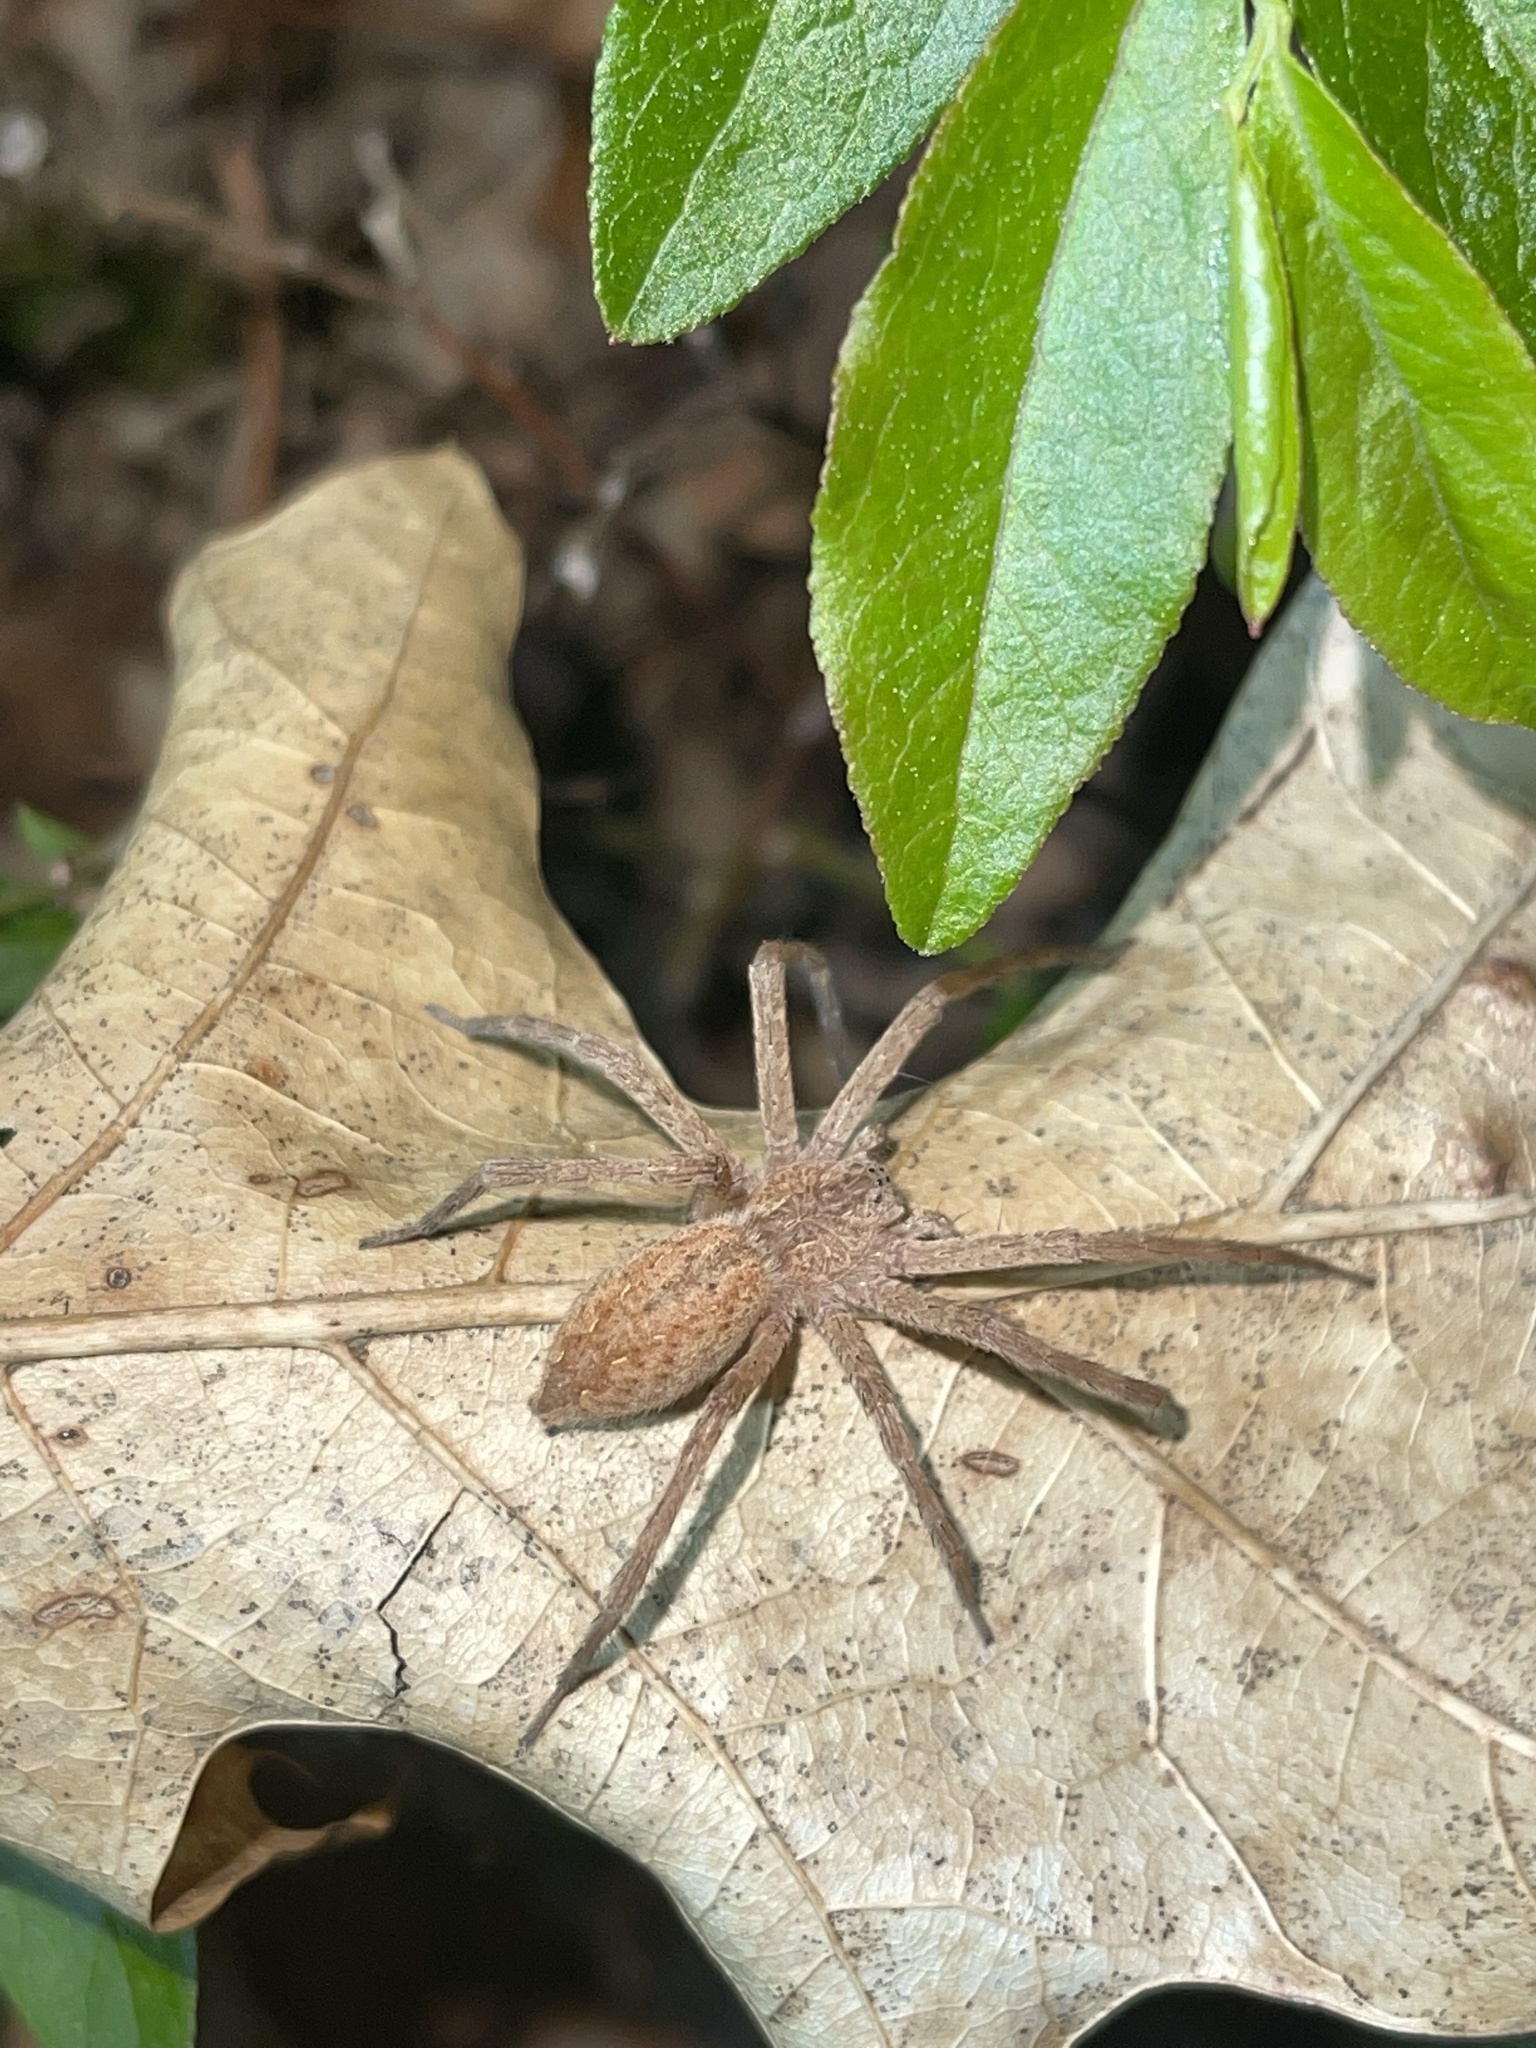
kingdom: Animalia
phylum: Arthropoda
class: Arachnida
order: Araneae
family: Pisauridae
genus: Pisaurina
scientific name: Pisaurina mira
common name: American nursery web spider
